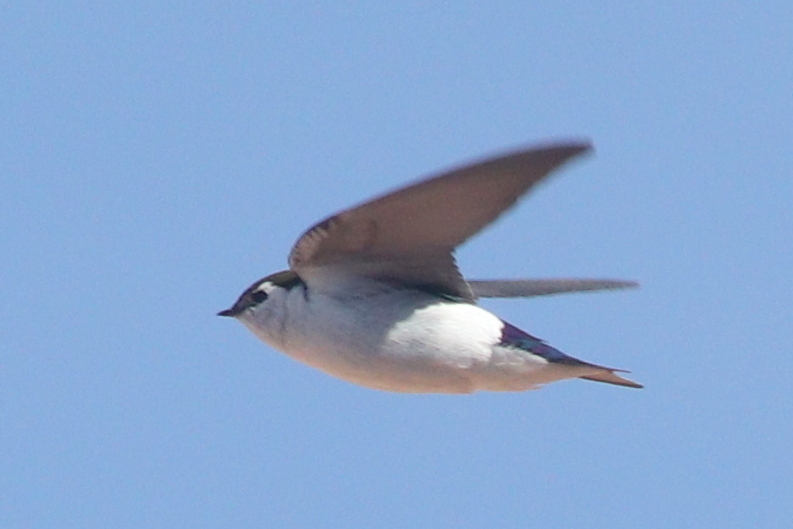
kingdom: Animalia
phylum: Chordata
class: Aves
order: Passeriformes
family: Hirundinidae
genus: Tachycineta
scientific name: Tachycineta thalassina
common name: Violet-green swallow
